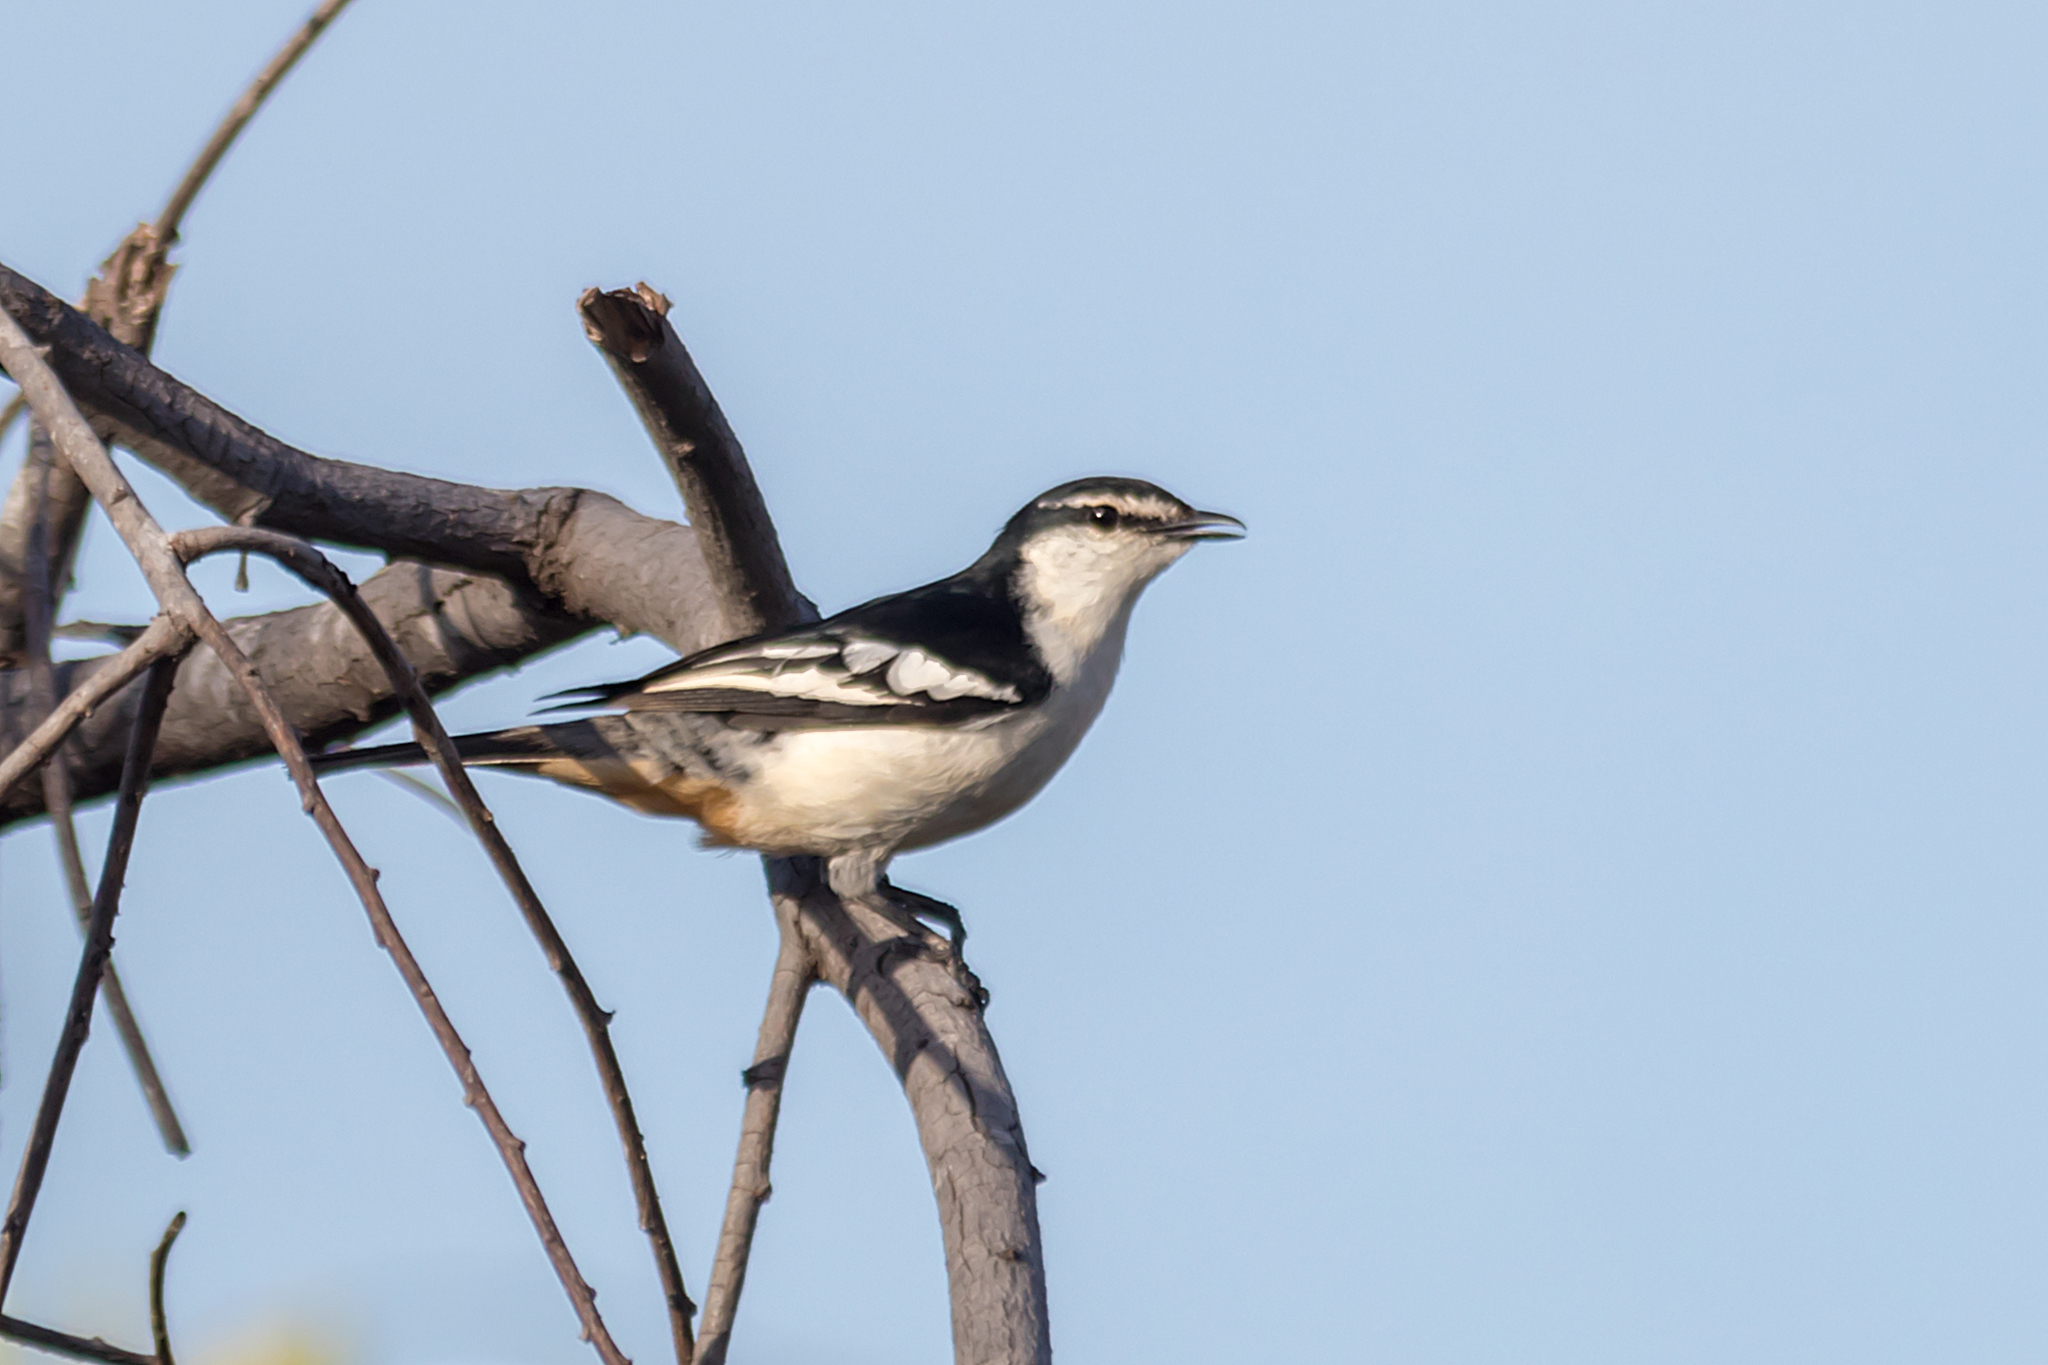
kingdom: Animalia
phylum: Chordata
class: Aves
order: Passeriformes
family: Campephagidae
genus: Lalage
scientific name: Lalage leucomela
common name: Varied triller
